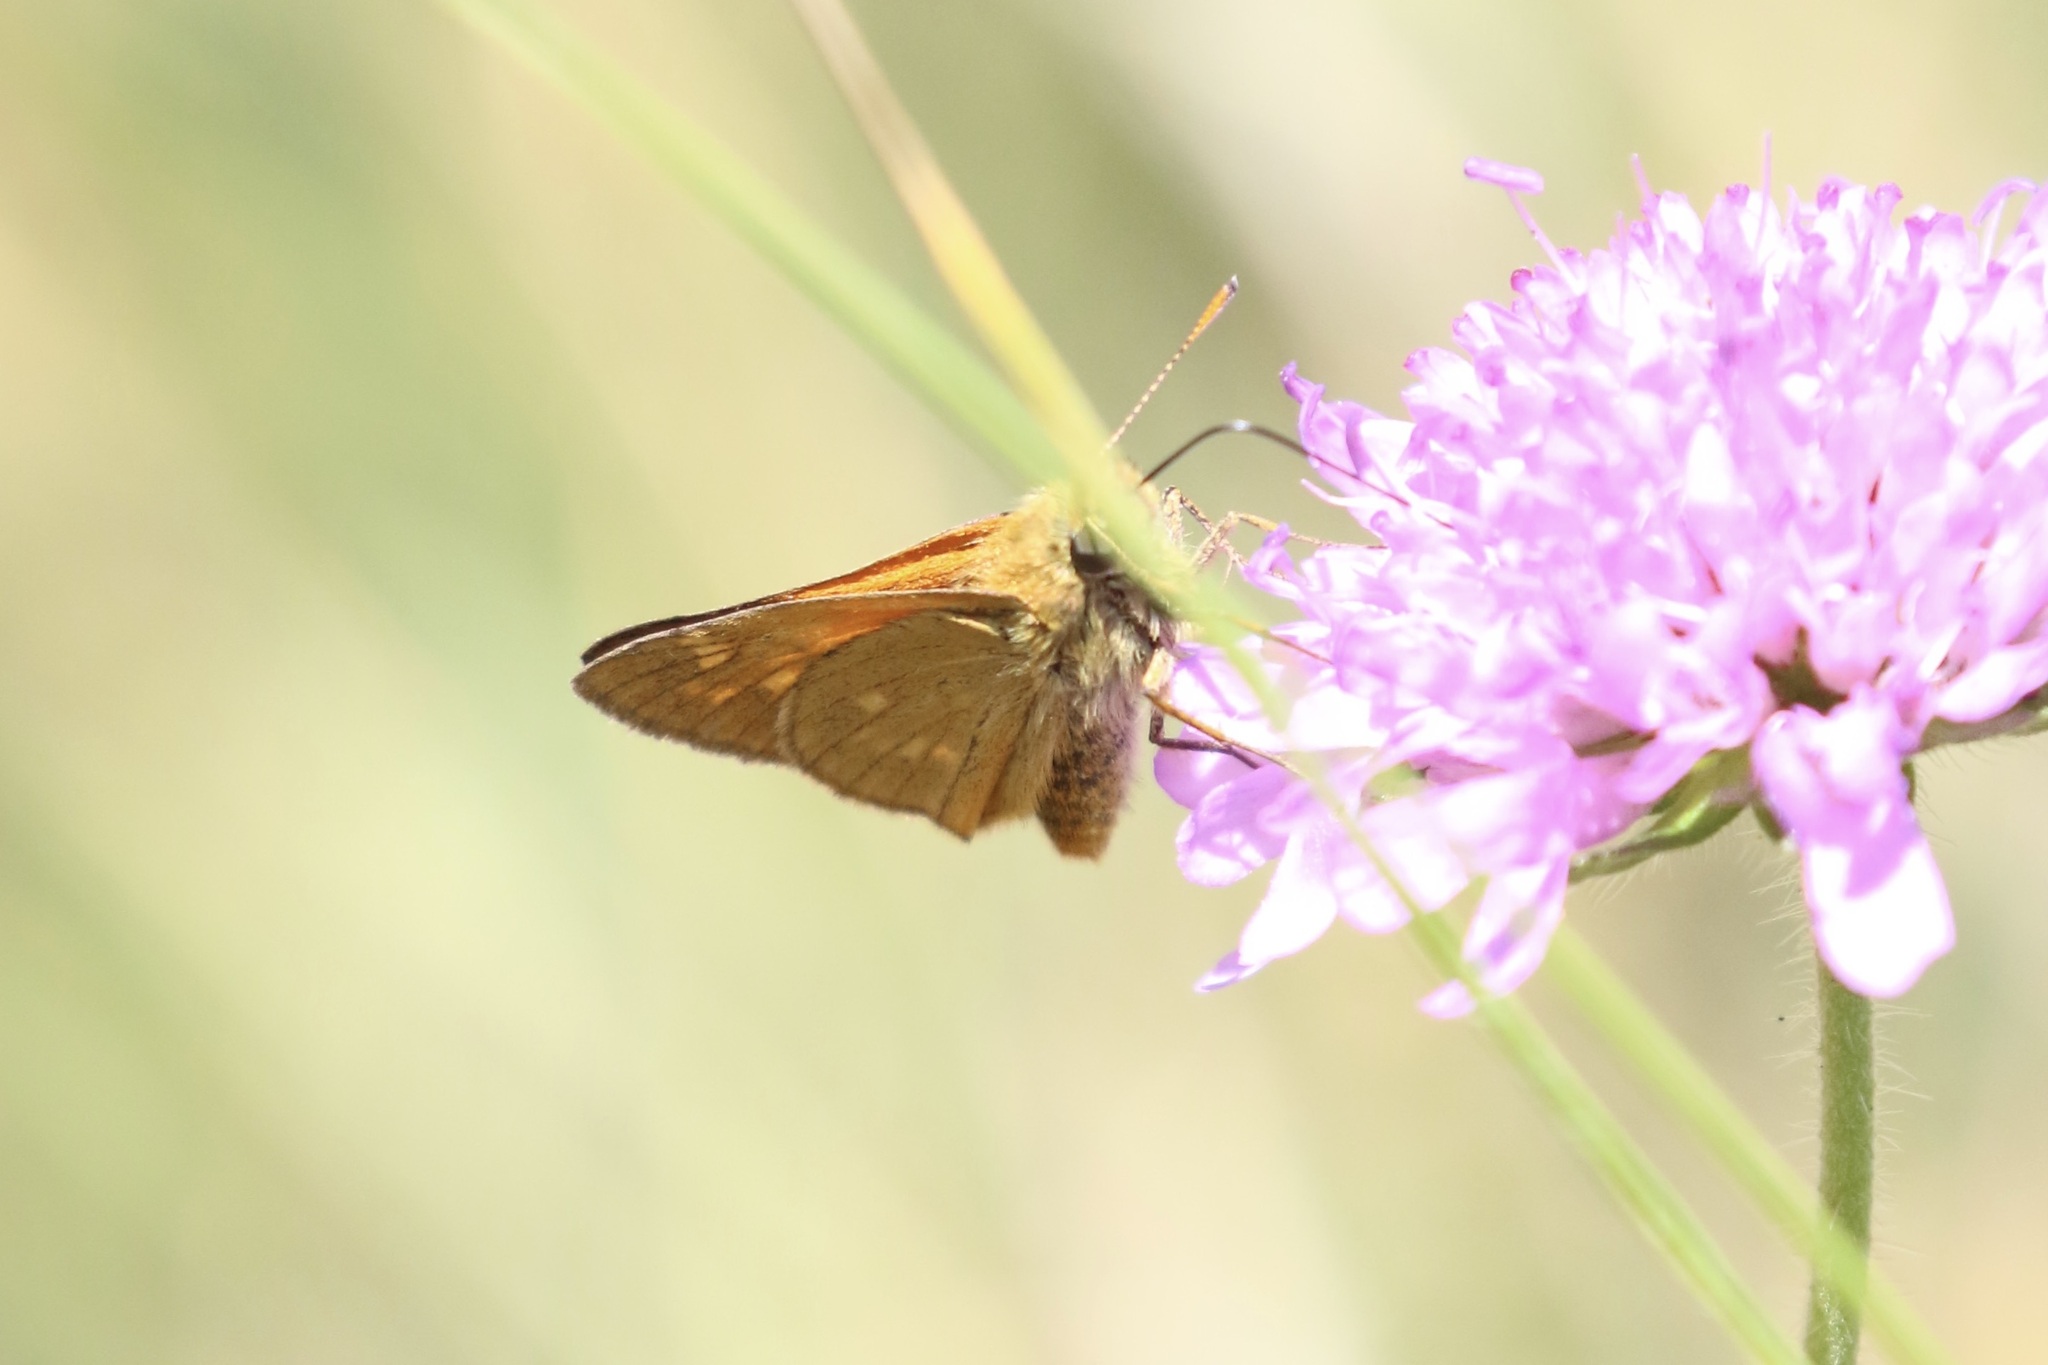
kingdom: Animalia
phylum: Arthropoda
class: Insecta
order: Lepidoptera
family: Hesperiidae
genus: Ochlodes
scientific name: Ochlodes venata
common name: Large skipper
